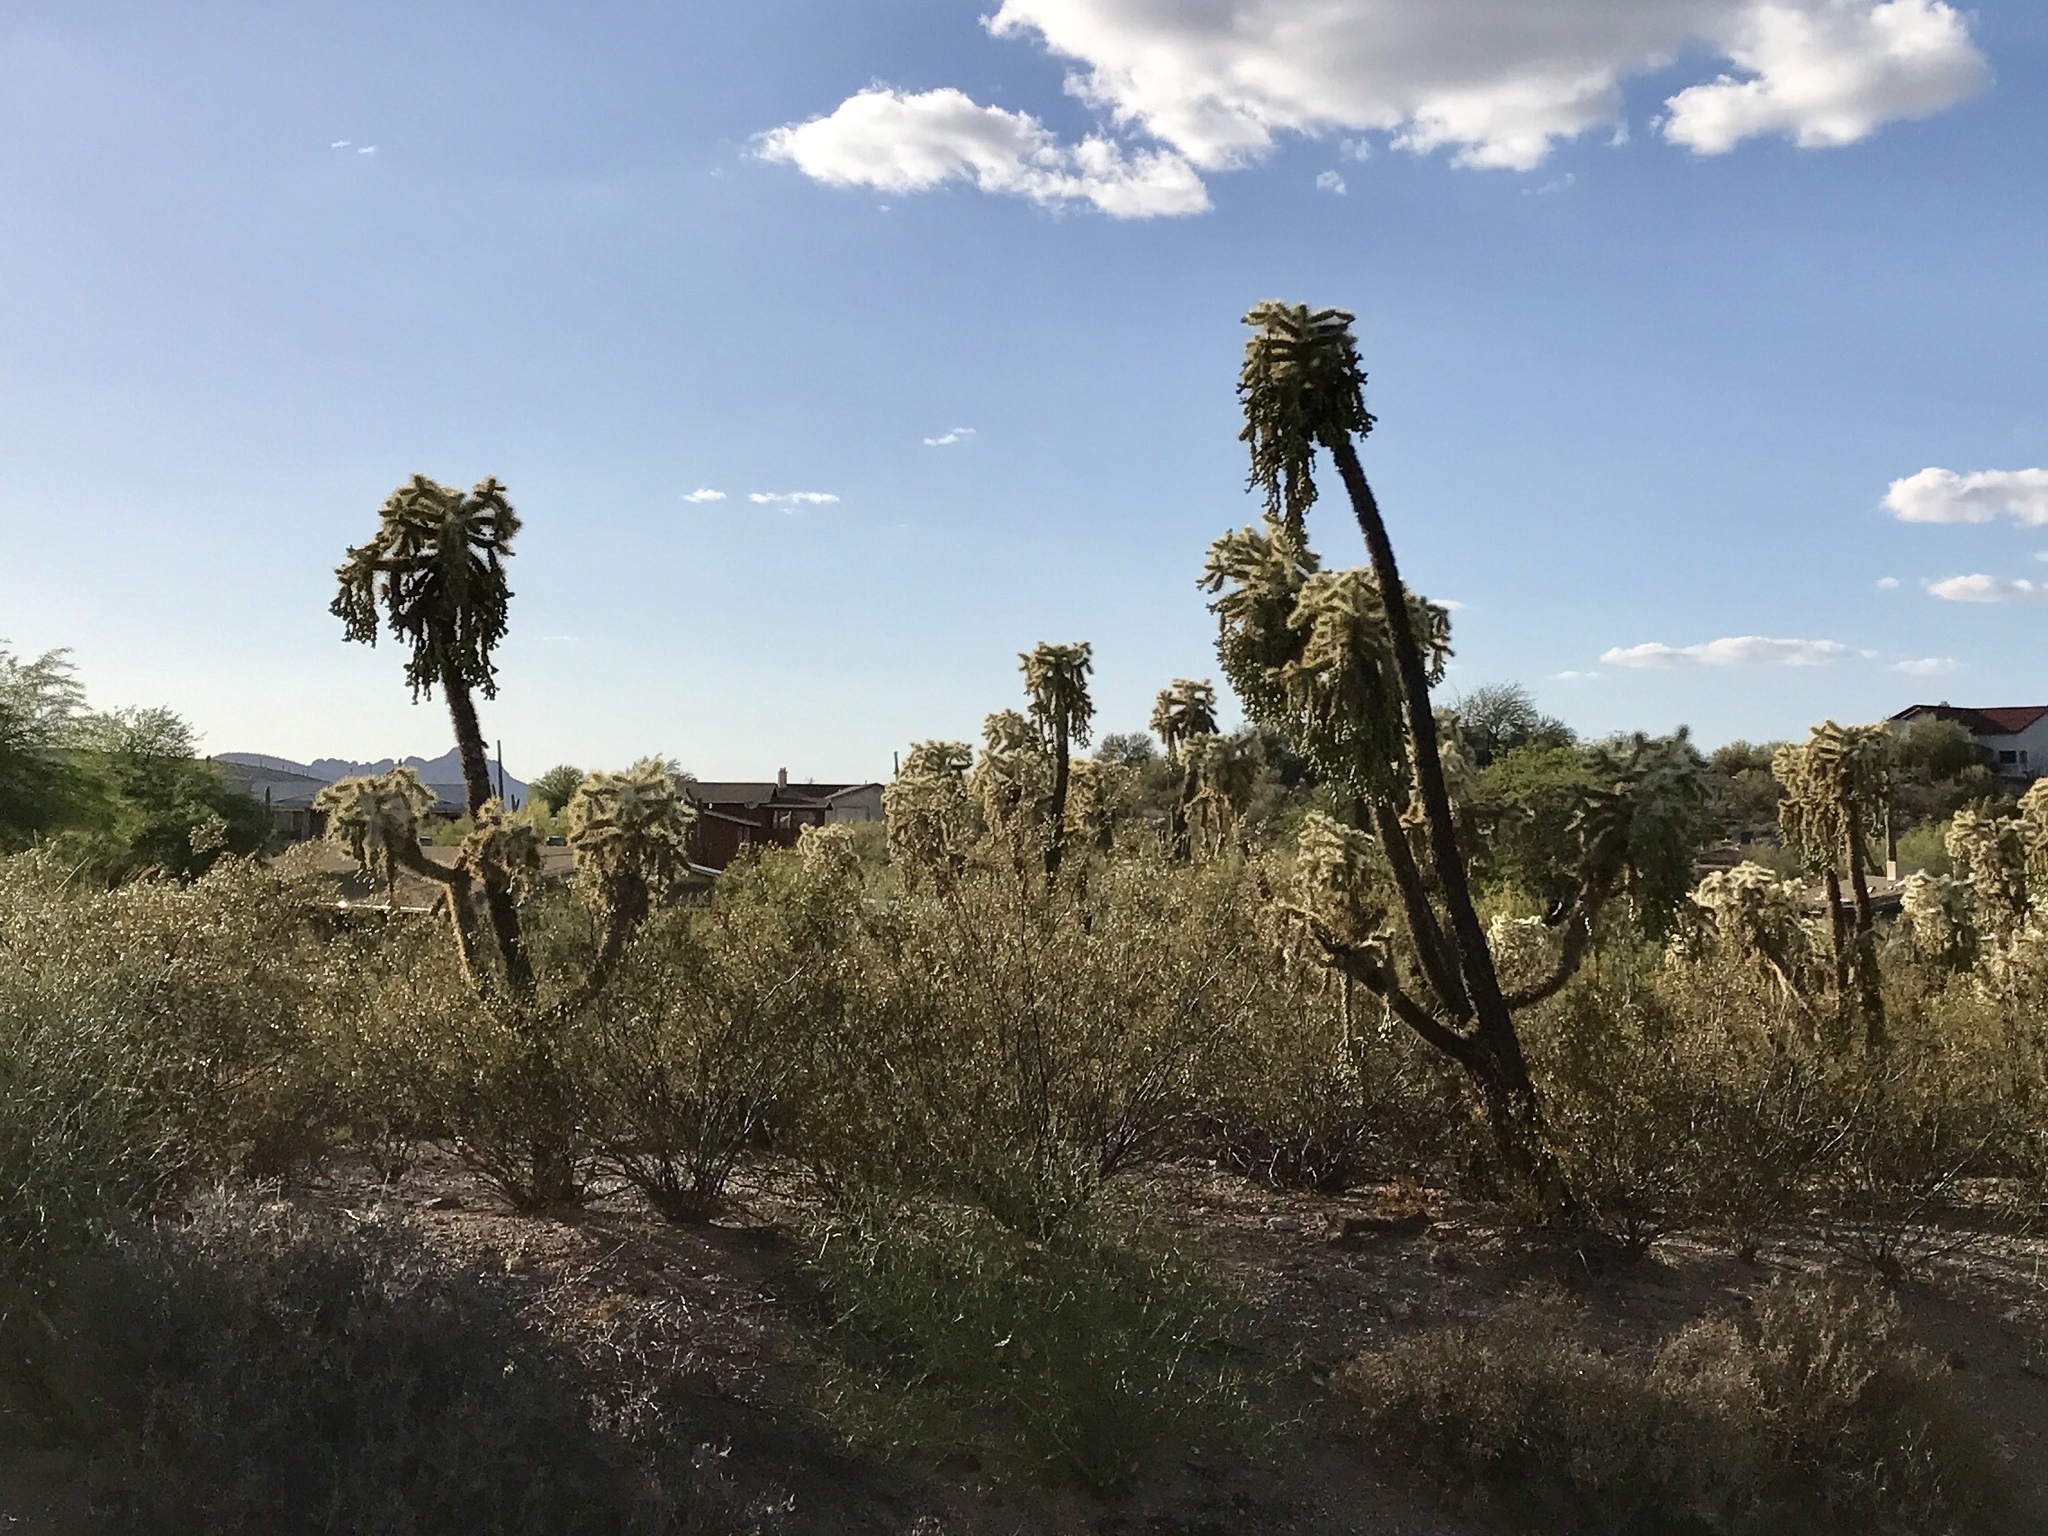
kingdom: Plantae
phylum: Tracheophyta
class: Magnoliopsida
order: Caryophyllales
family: Cactaceae
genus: Cylindropuntia
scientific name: Cylindropuntia fulgida
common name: Jumping cholla
